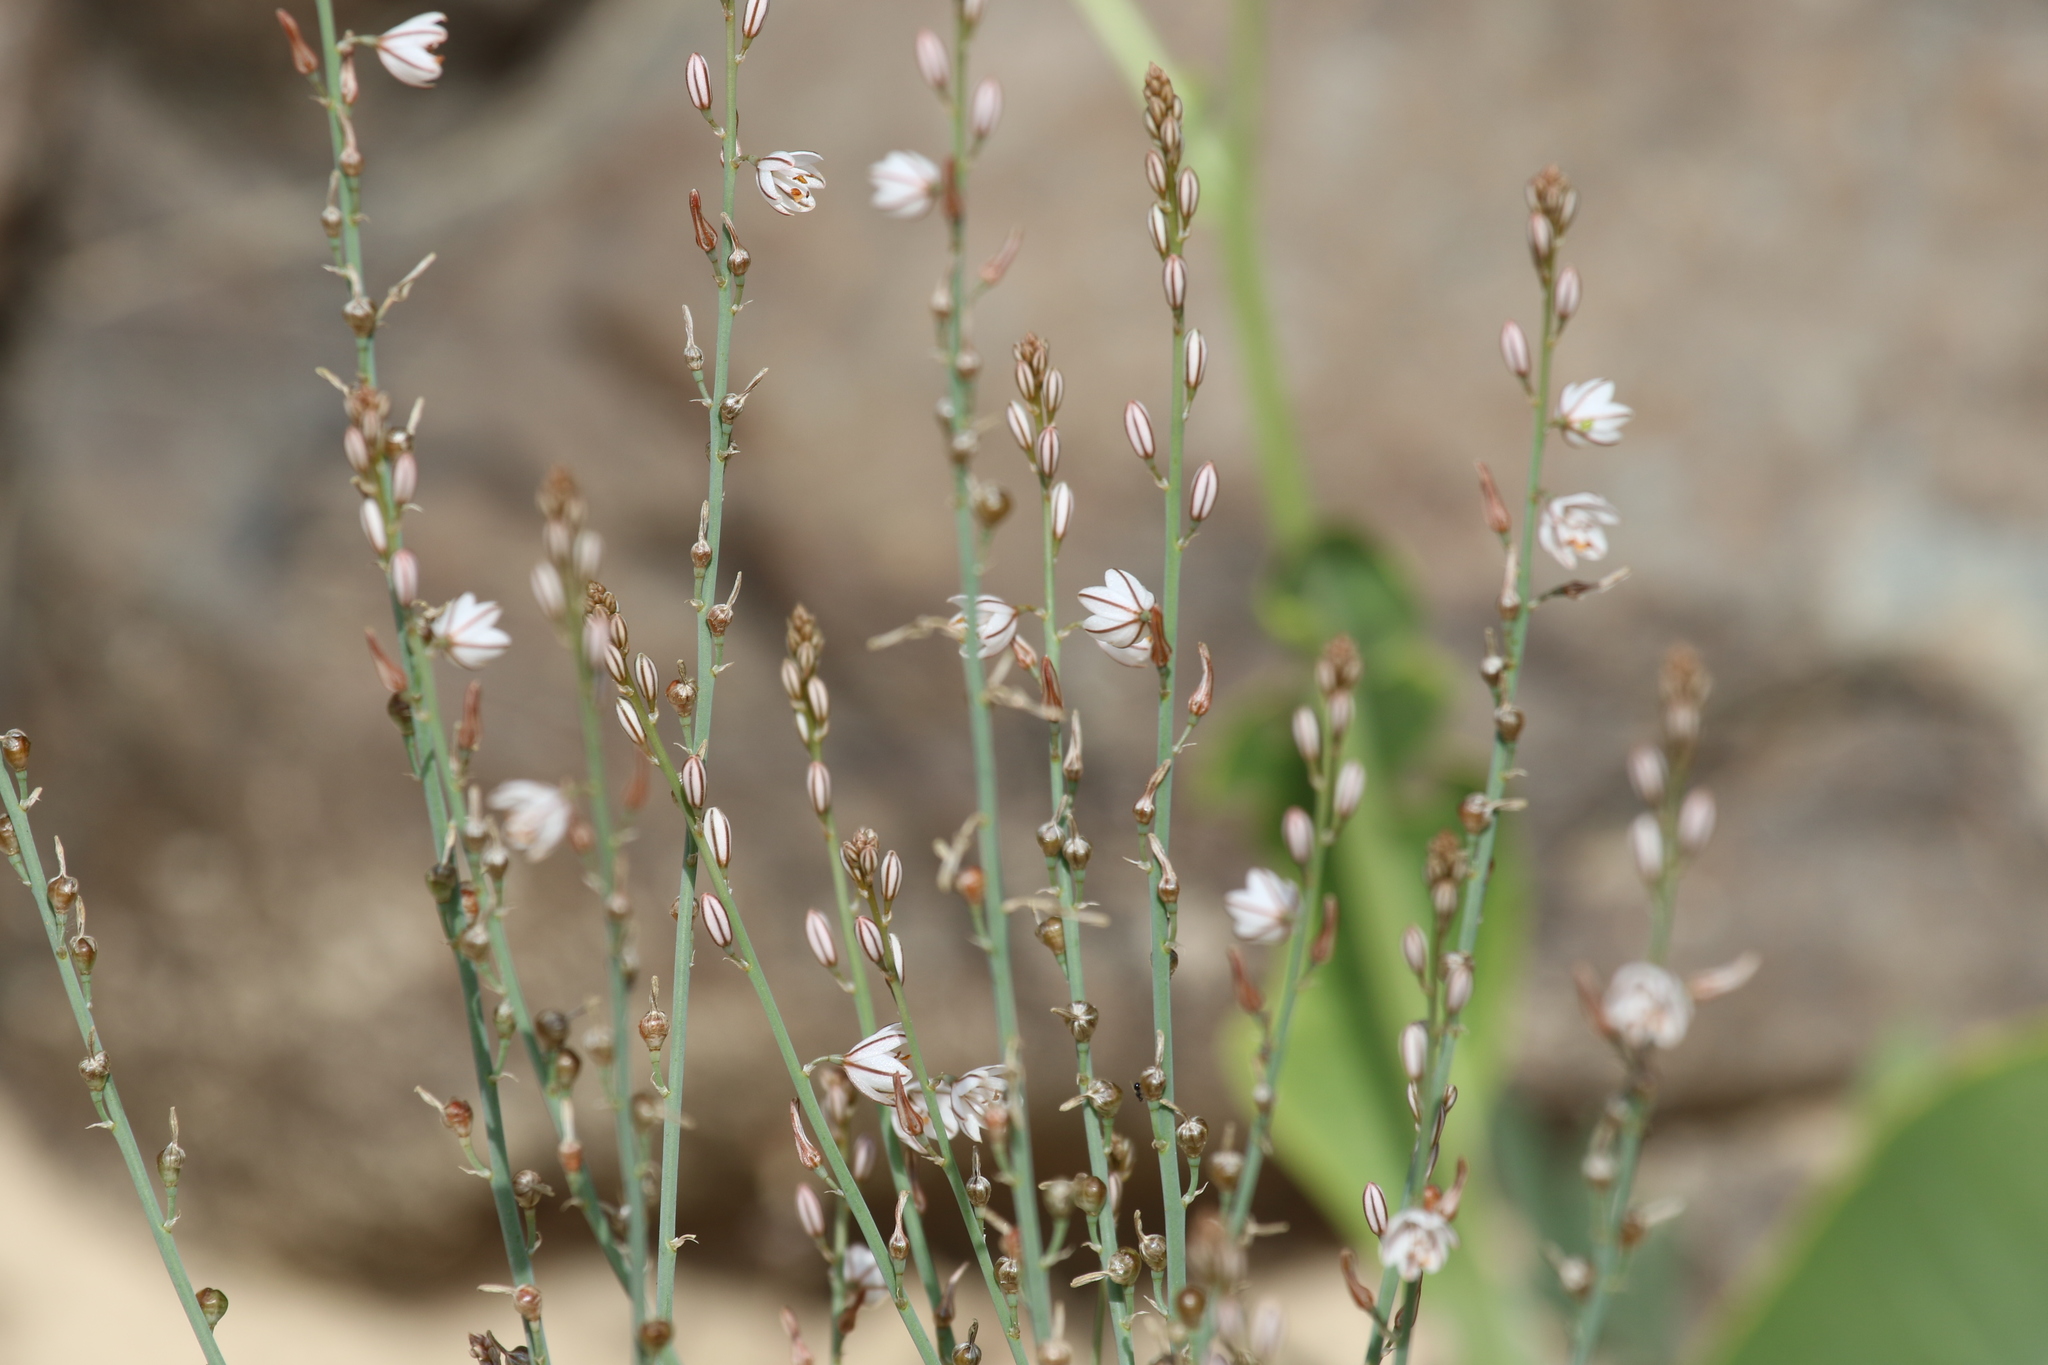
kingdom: Plantae
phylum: Tracheophyta
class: Liliopsida
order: Asparagales
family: Asphodelaceae
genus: Asphodelus
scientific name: Asphodelus tenuifolius
